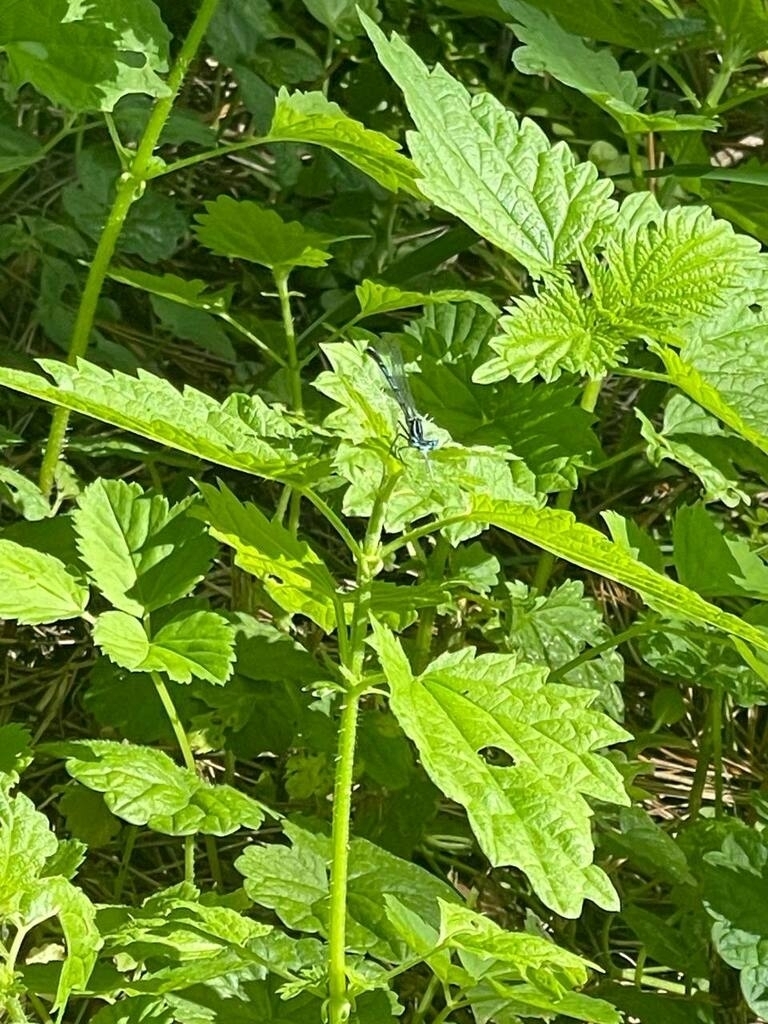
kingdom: Animalia
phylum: Arthropoda
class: Insecta
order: Odonata
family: Platycnemididae
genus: Platycnemis
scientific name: Platycnemis pennipes
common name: White-legged damselfly
